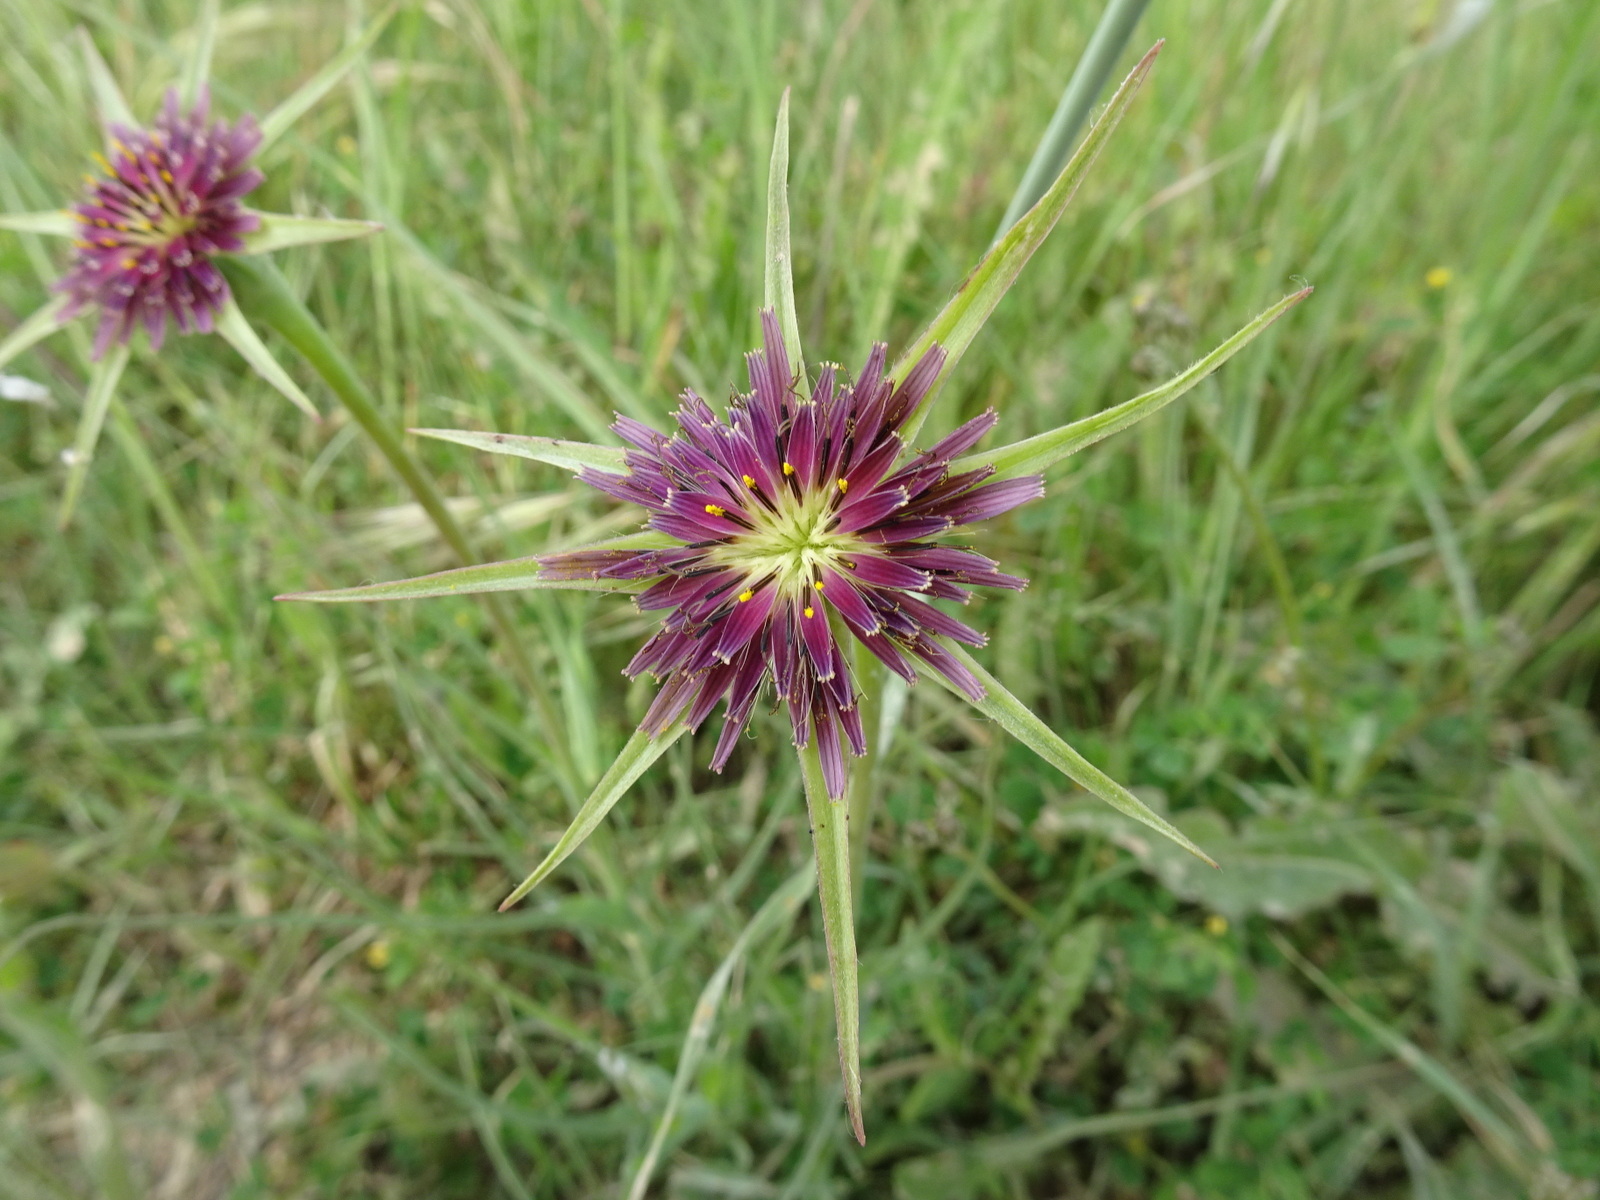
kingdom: Plantae
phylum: Tracheophyta
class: Magnoliopsida
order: Asterales
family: Asteraceae
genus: Tragopogon
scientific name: Tragopogon porrifolius
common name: Salsify
